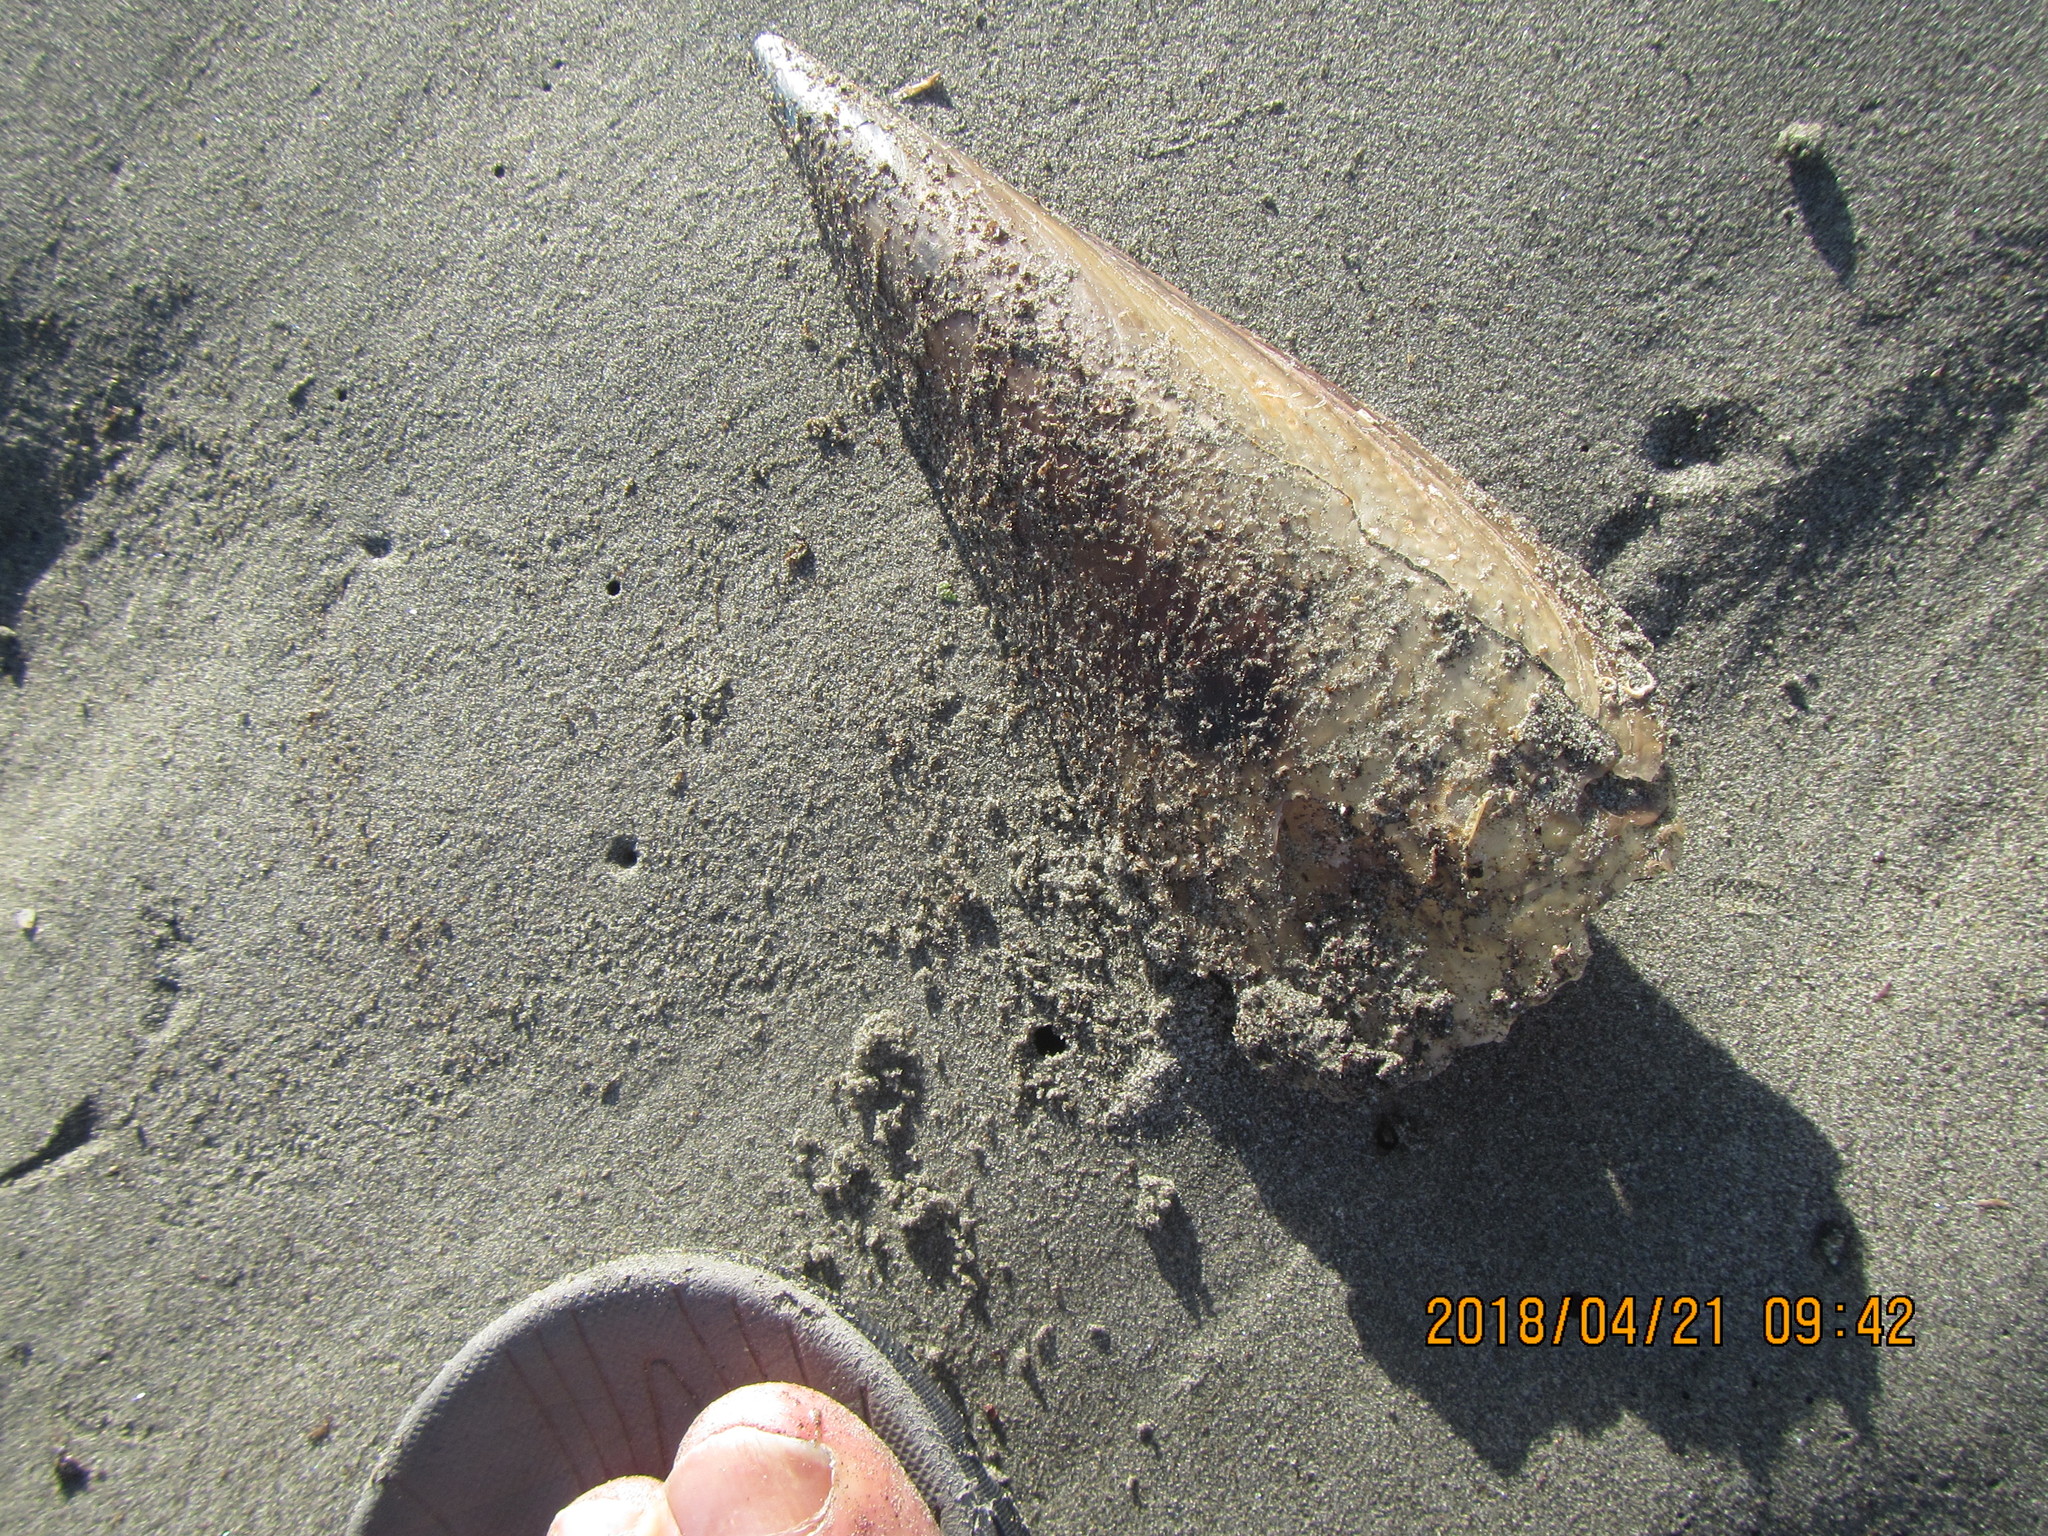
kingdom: Animalia
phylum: Mollusca
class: Bivalvia
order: Ostreida
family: Pinnidae
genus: Atrina
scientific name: Atrina zelandica
